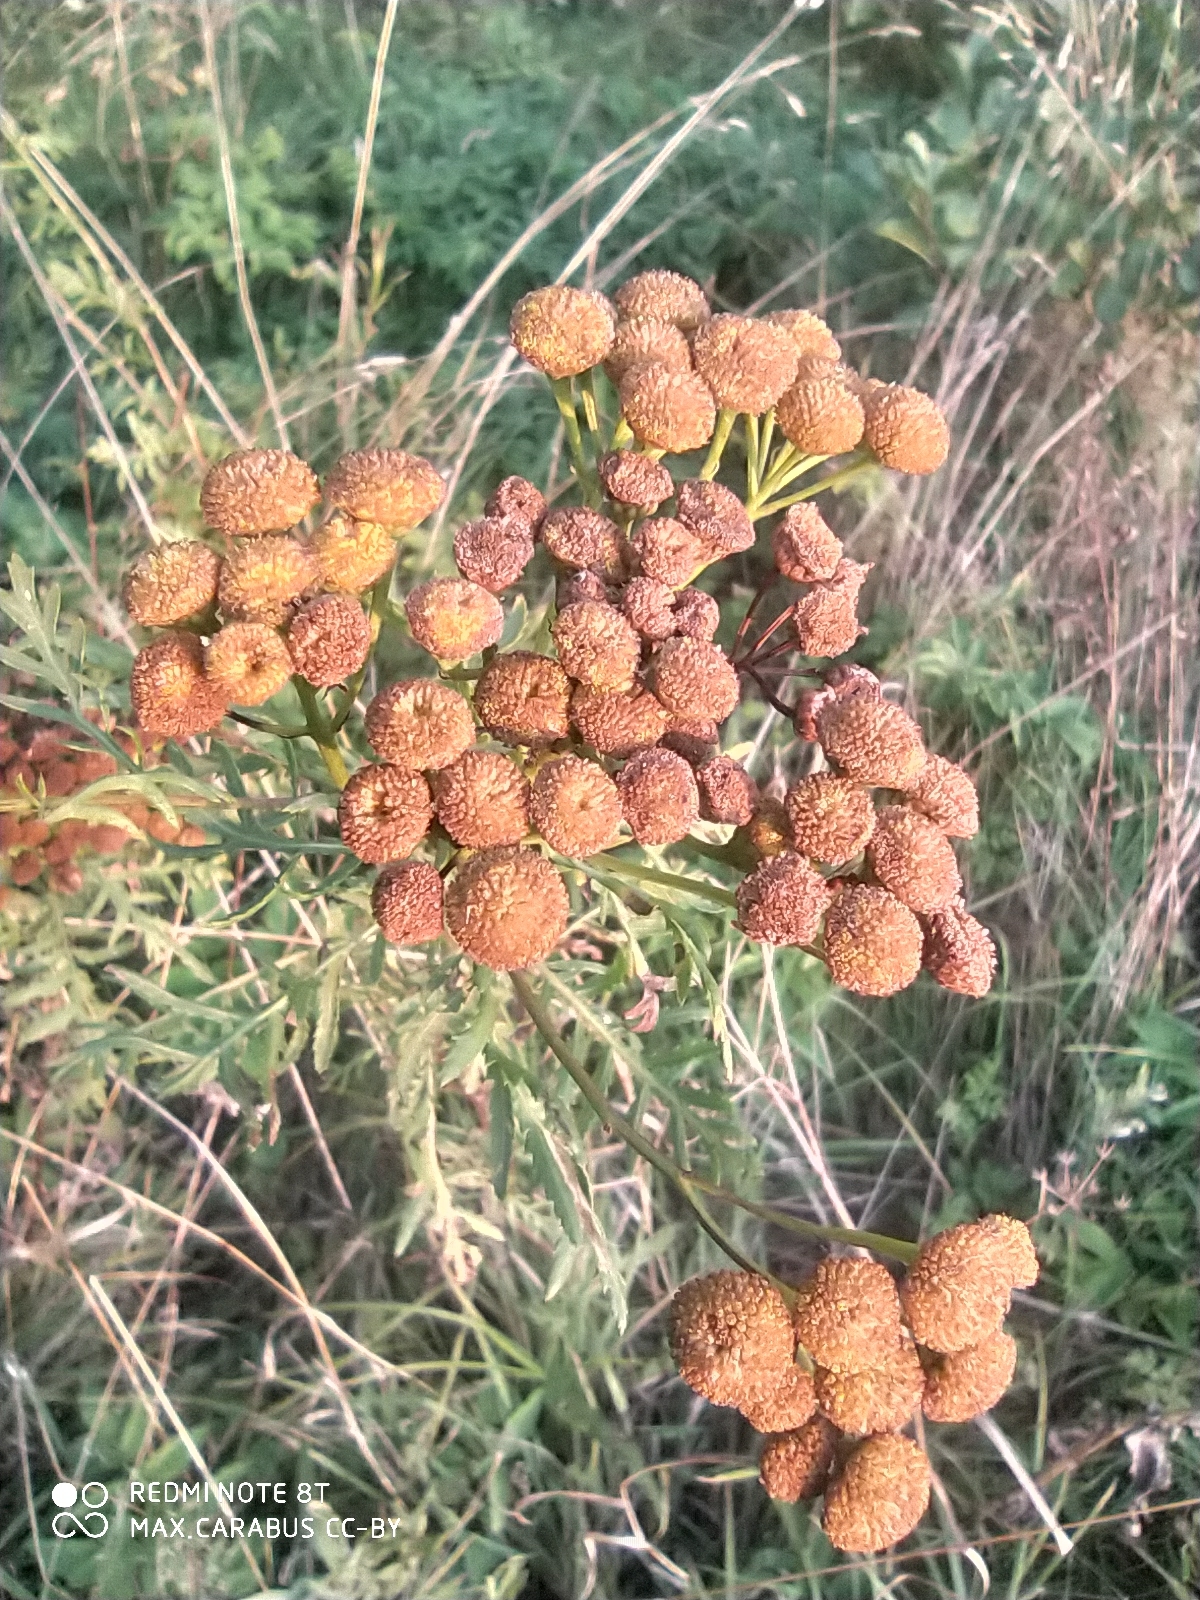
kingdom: Plantae
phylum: Tracheophyta
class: Magnoliopsida
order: Asterales
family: Asteraceae
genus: Tanacetum
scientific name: Tanacetum vulgare
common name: Common tansy
